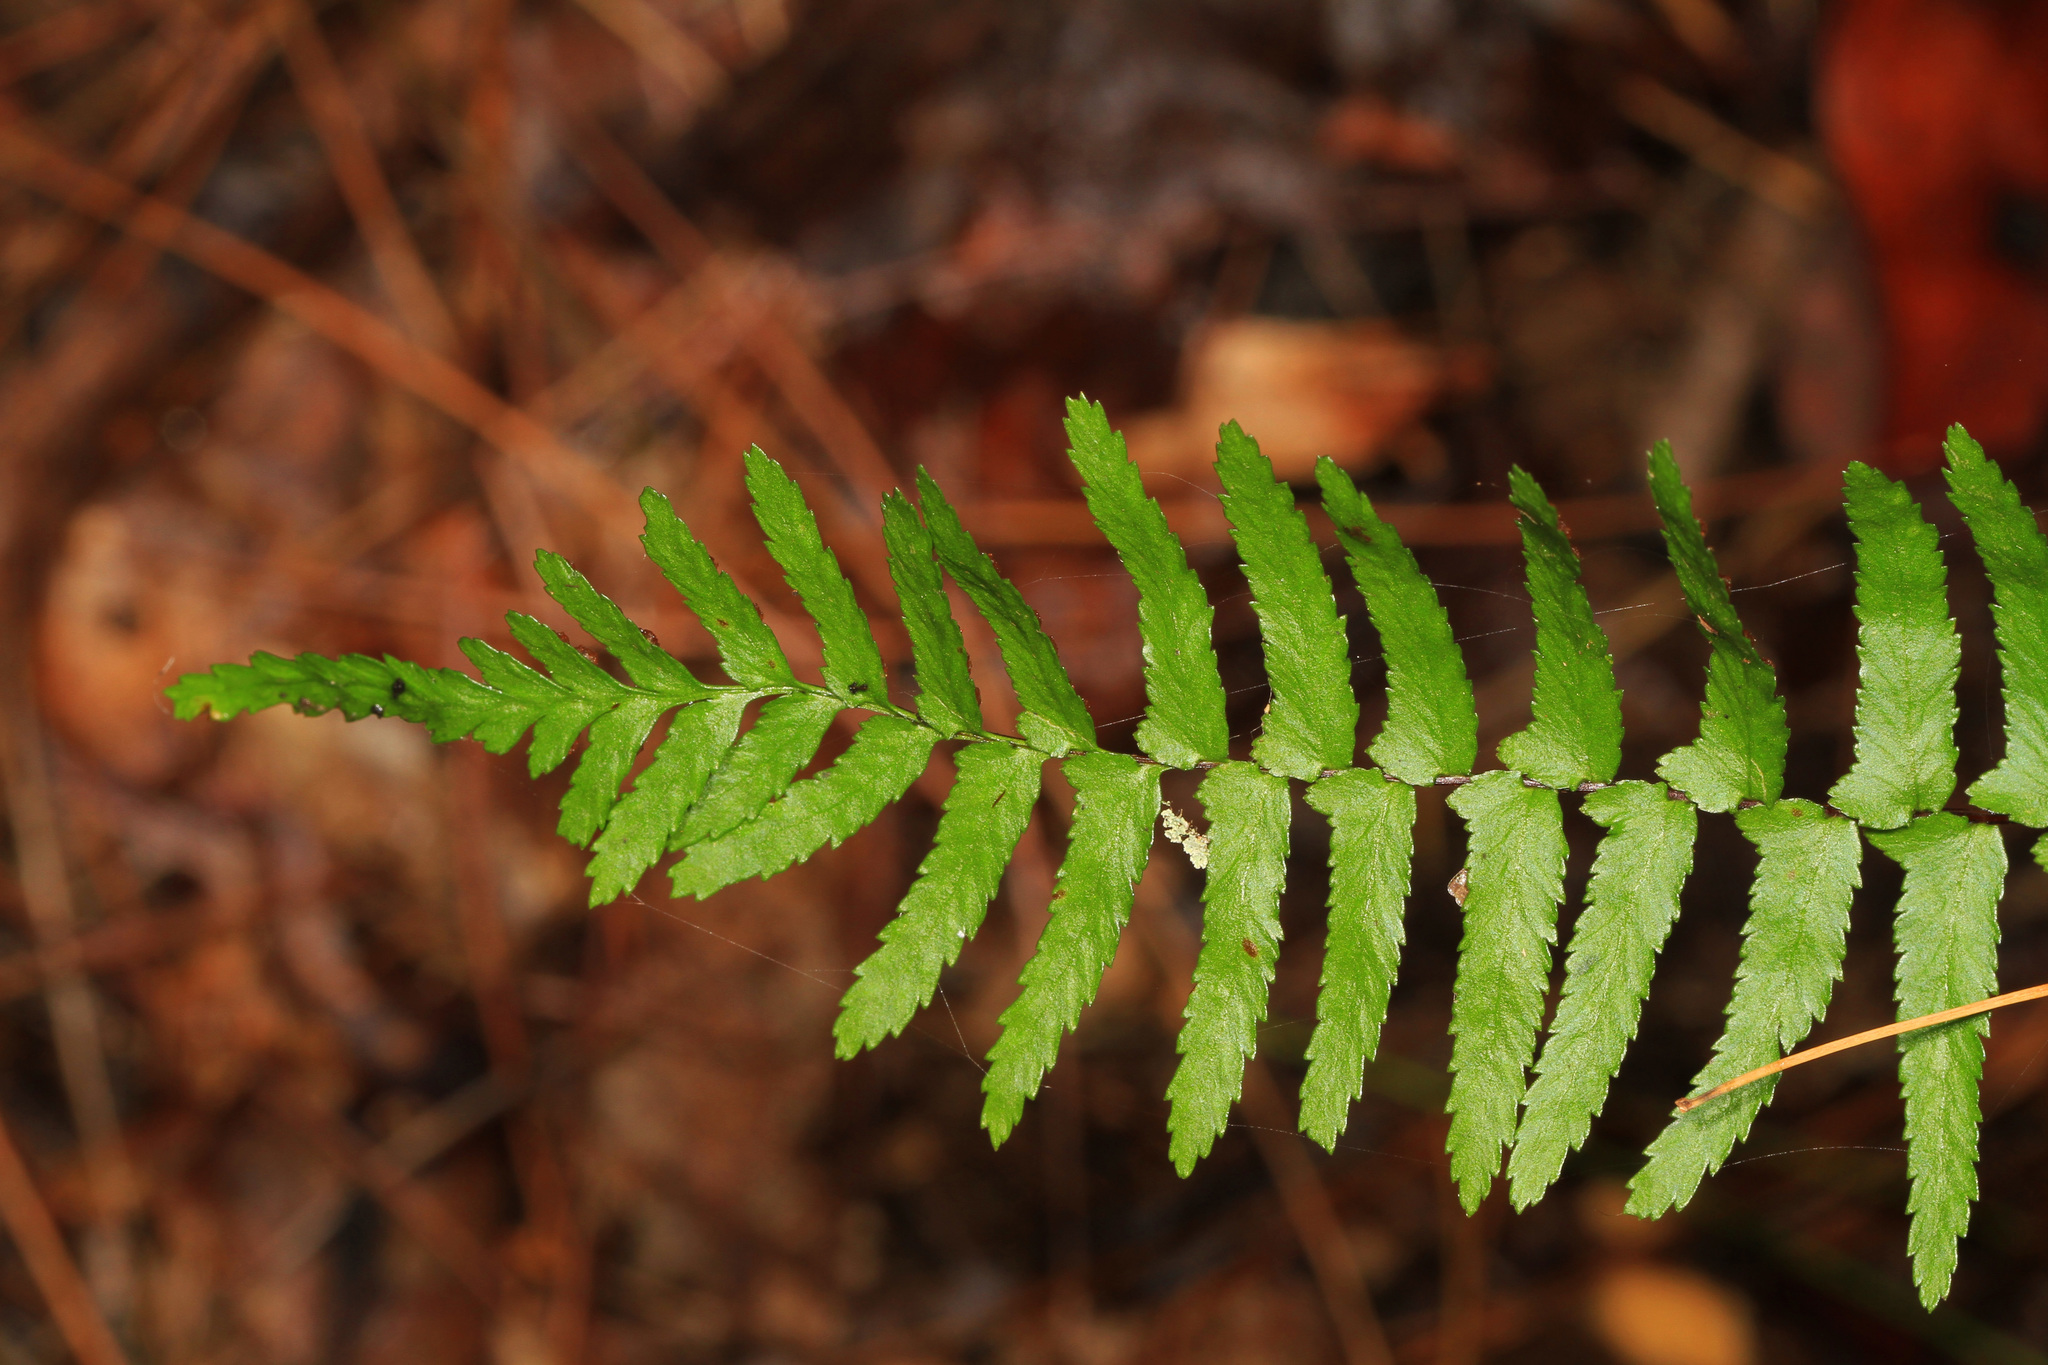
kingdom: Plantae
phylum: Tracheophyta
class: Polypodiopsida
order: Polypodiales
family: Aspleniaceae
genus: Asplenium
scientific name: Asplenium platyneuron
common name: Ebony spleenwort
